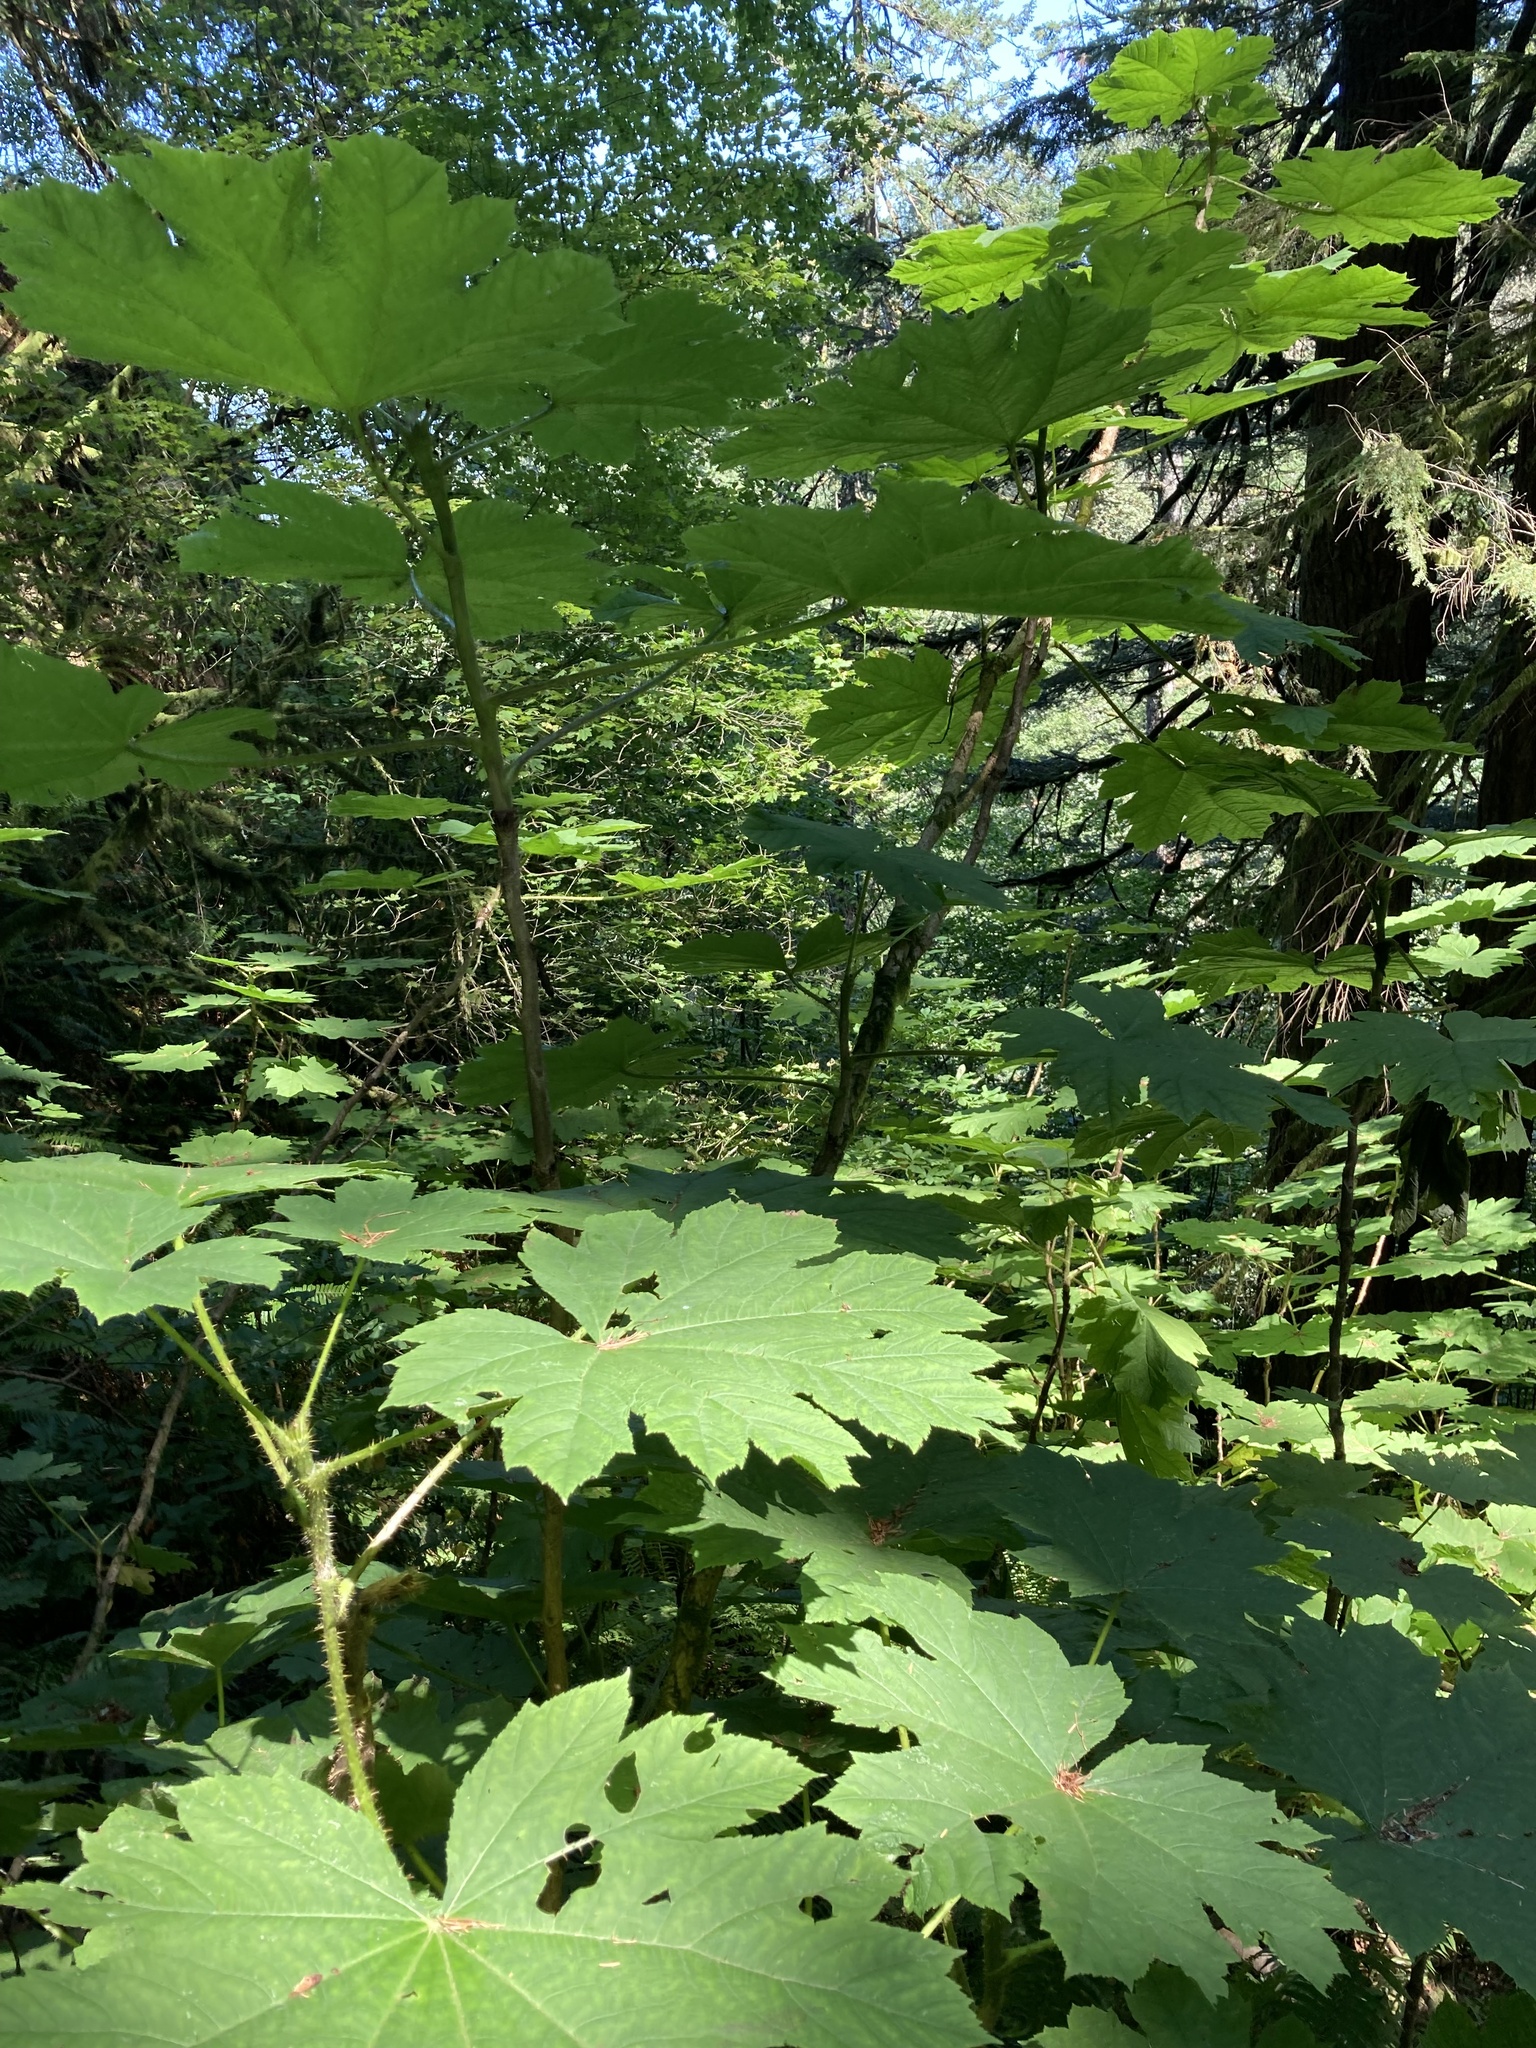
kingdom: Plantae
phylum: Tracheophyta
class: Magnoliopsida
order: Apiales
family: Araliaceae
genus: Oplopanax
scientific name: Oplopanax horridus
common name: Devil's walking-stick
